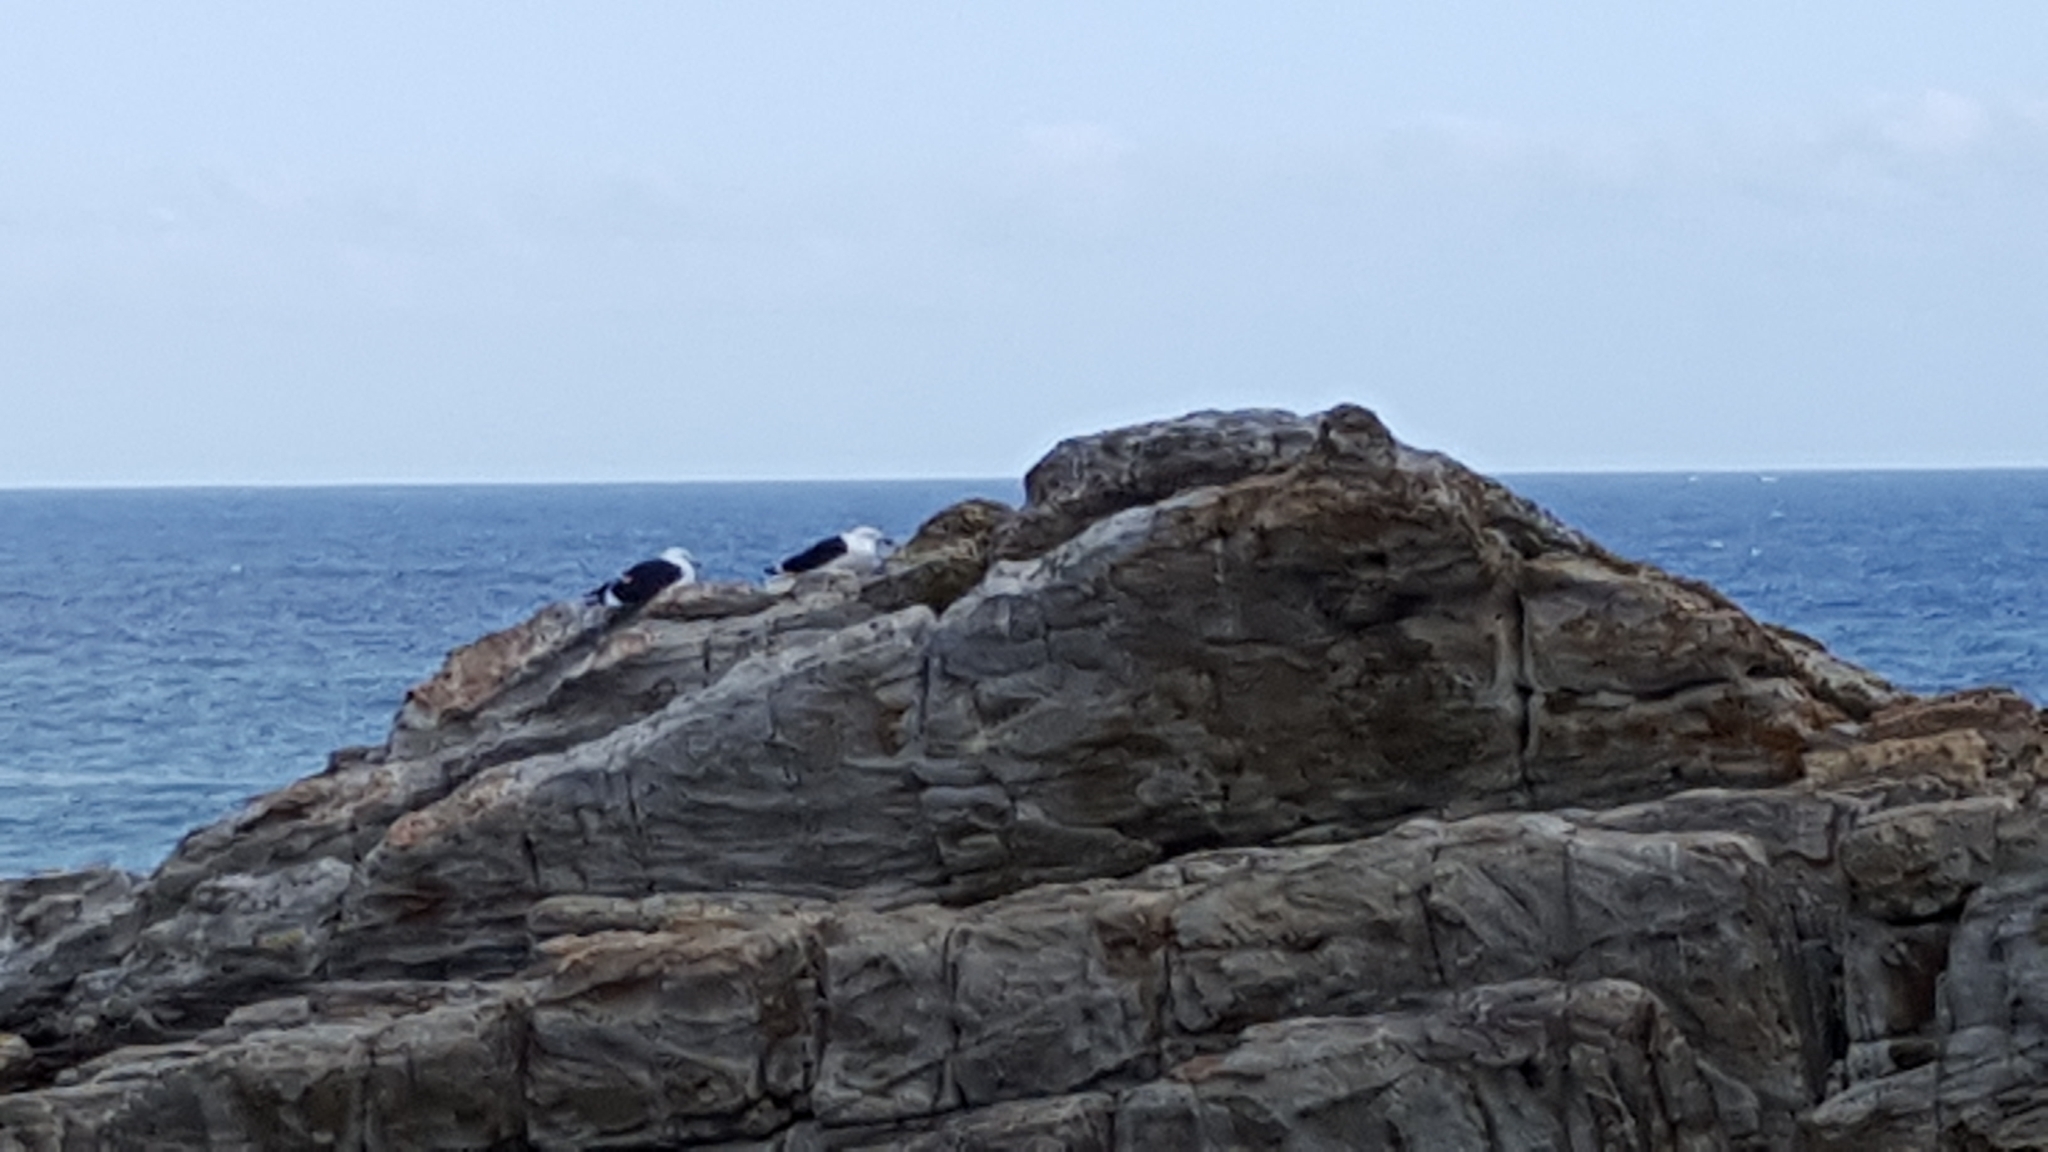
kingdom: Animalia
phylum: Chordata
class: Aves
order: Charadriiformes
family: Laridae
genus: Larus
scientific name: Larus dominicanus
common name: Kelp gull
